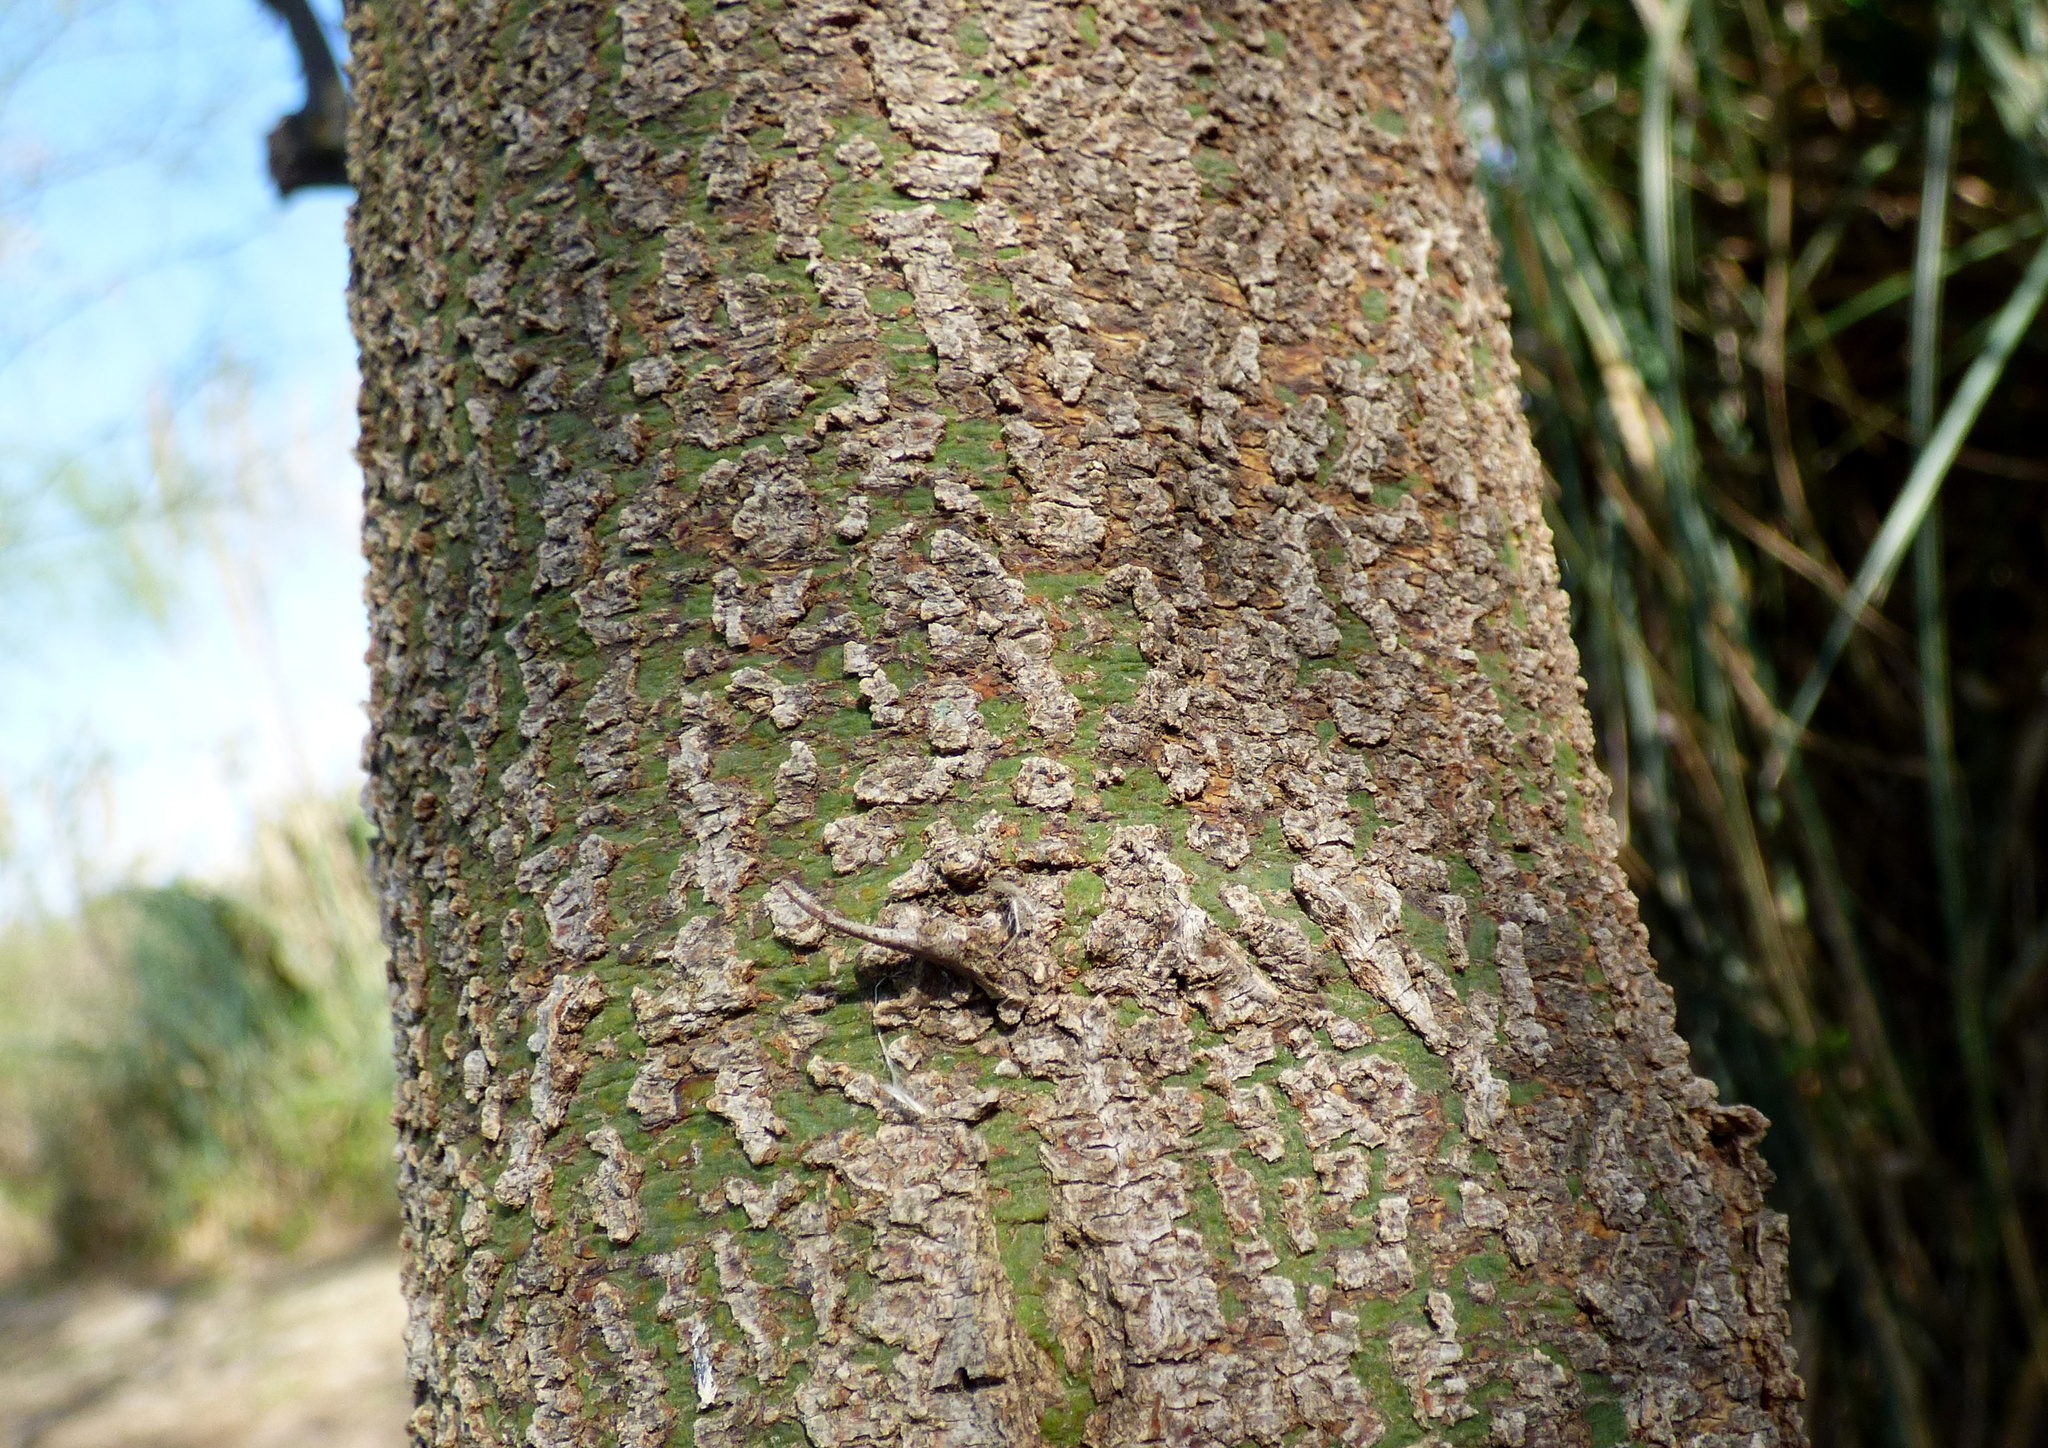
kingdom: Plantae
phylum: Tracheophyta
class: Magnoliopsida
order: Fabales
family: Fabaceae
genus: Parkinsonia
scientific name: Parkinsonia aculeata
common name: Jerusalem thorn
